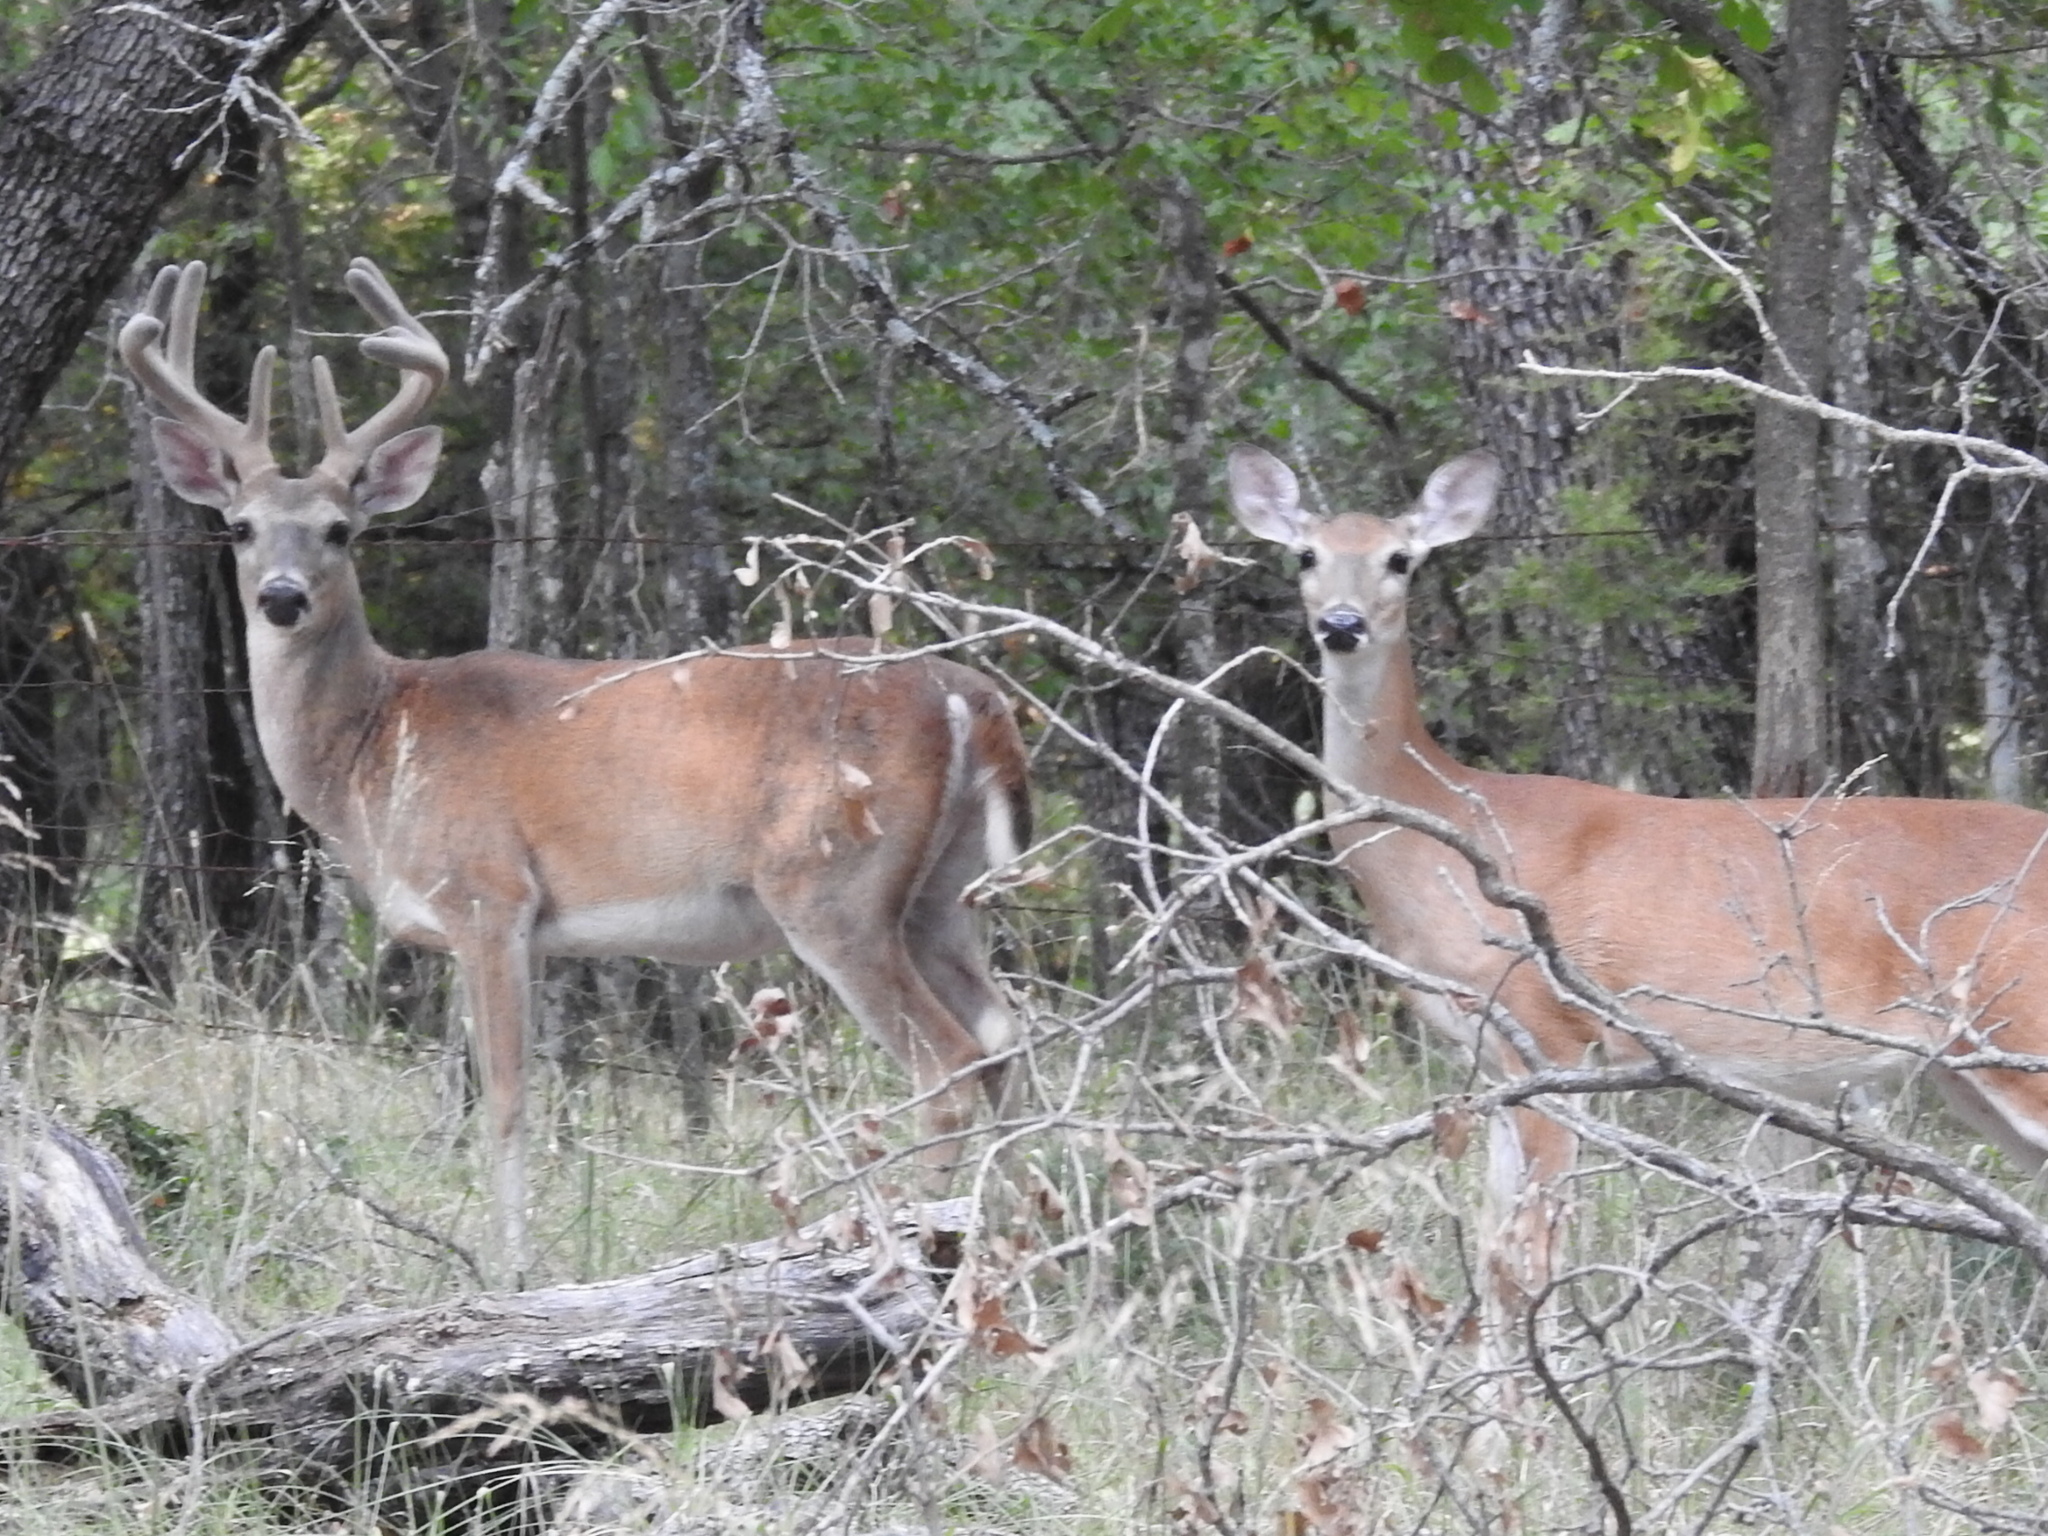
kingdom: Animalia
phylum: Chordata
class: Mammalia
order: Artiodactyla
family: Cervidae
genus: Odocoileus
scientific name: Odocoileus virginianus
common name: White-tailed deer
